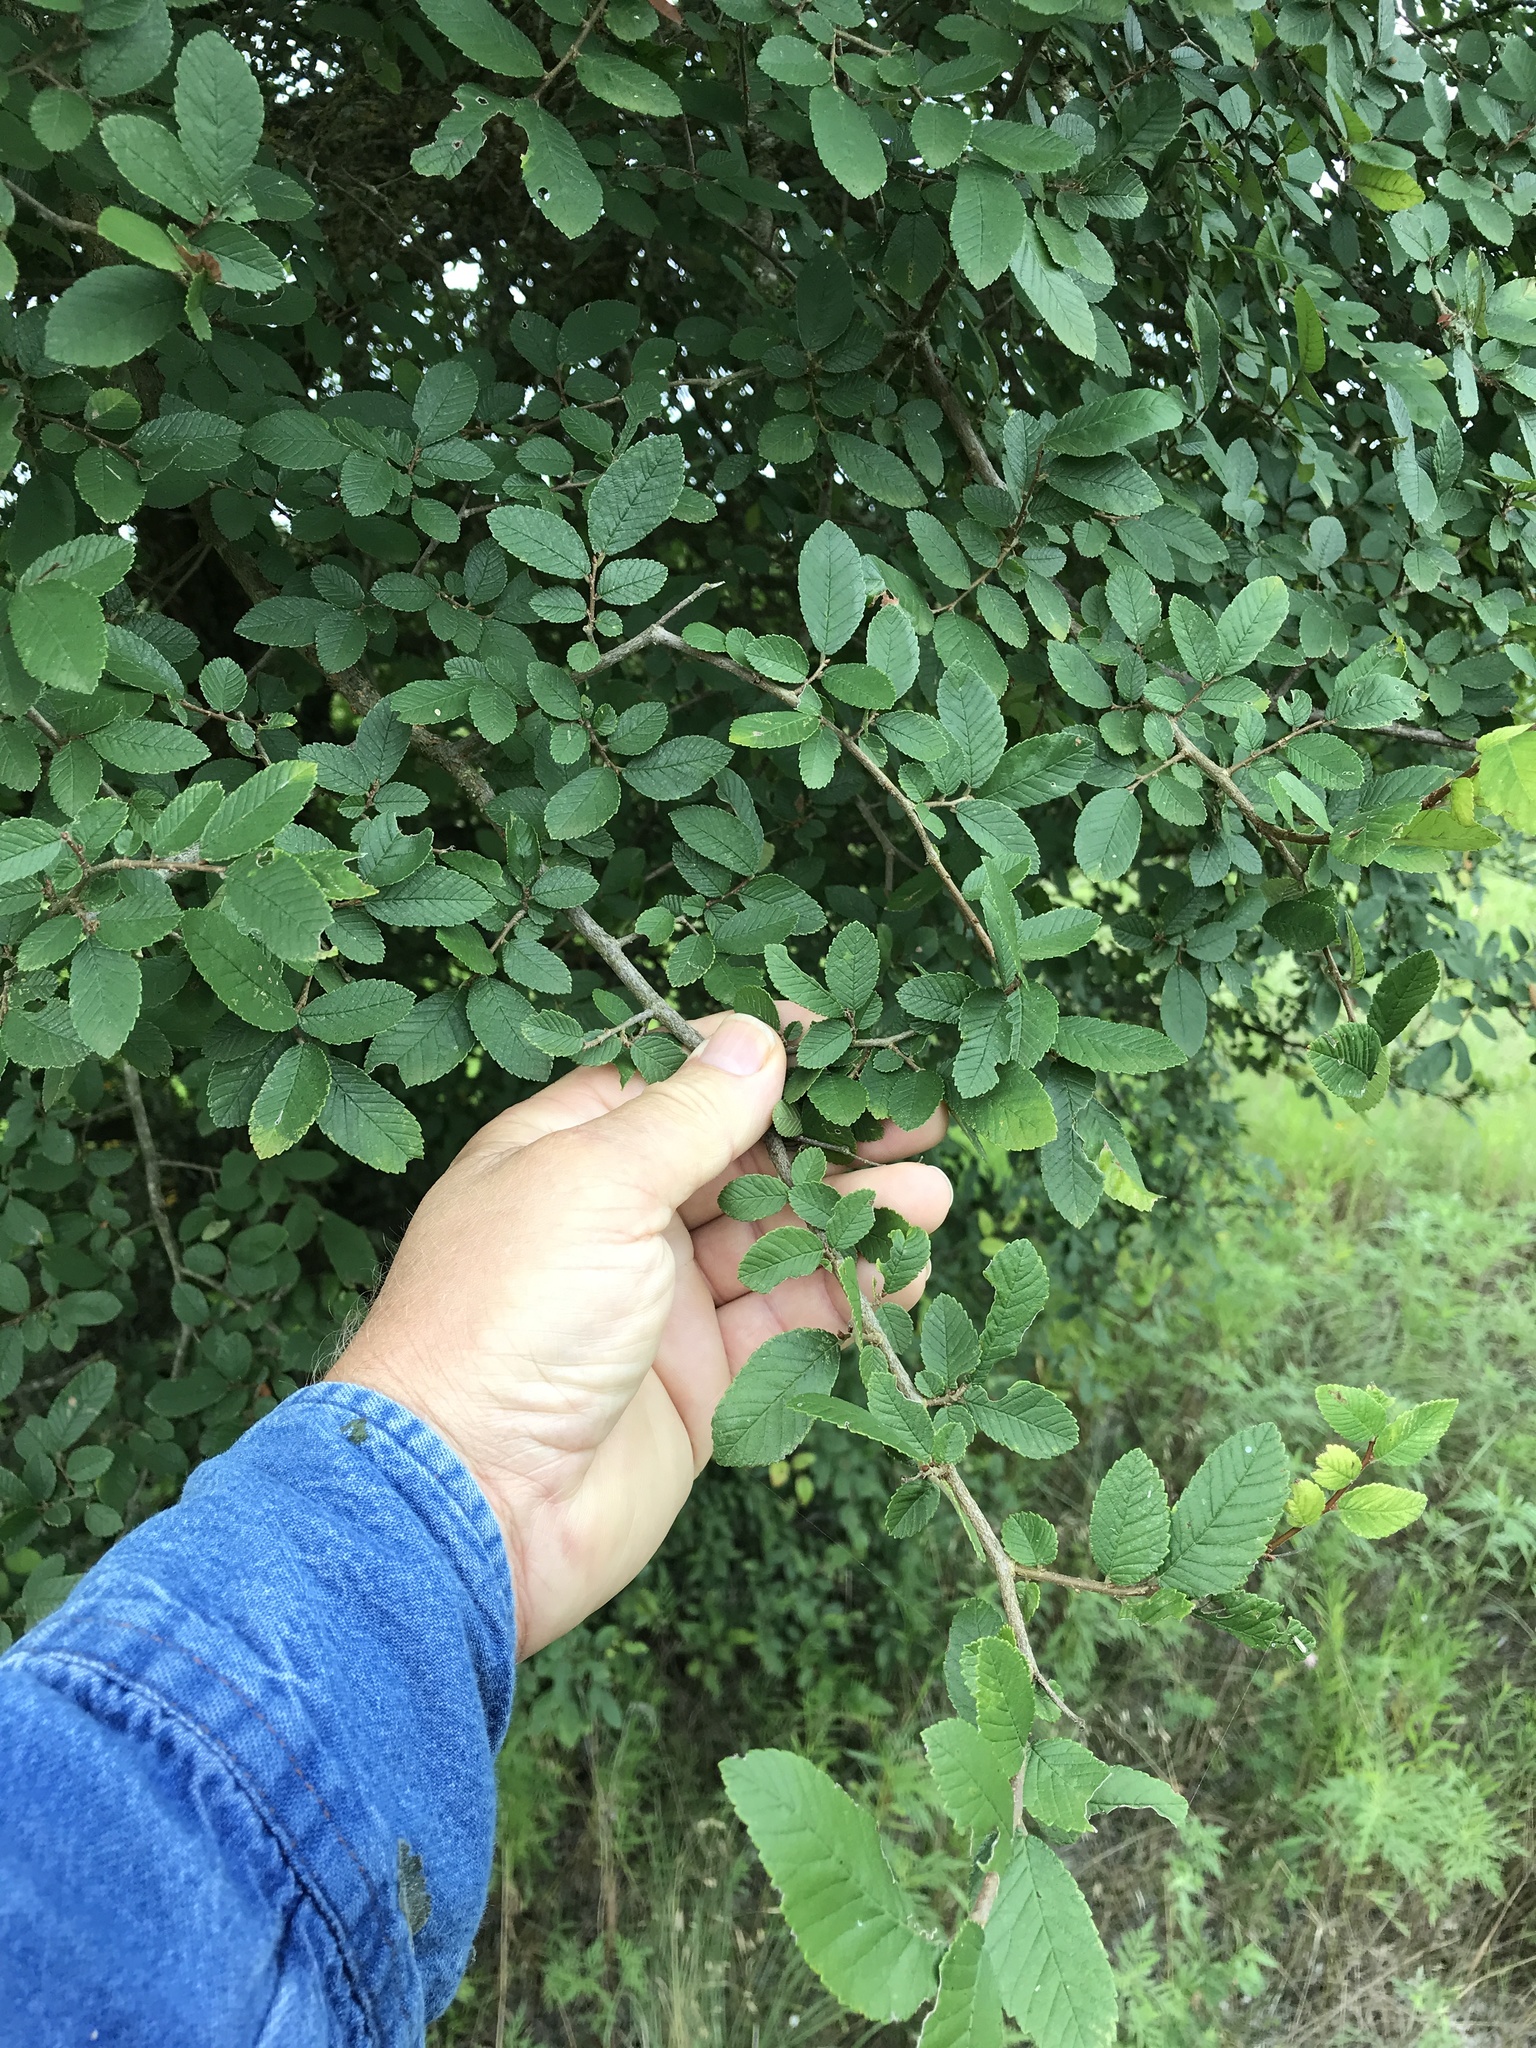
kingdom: Plantae
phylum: Tracheophyta
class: Magnoliopsida
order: Rosales
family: Ulmaceae
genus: Ulmus
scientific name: Ulmus crassifolia
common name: Basket elm
